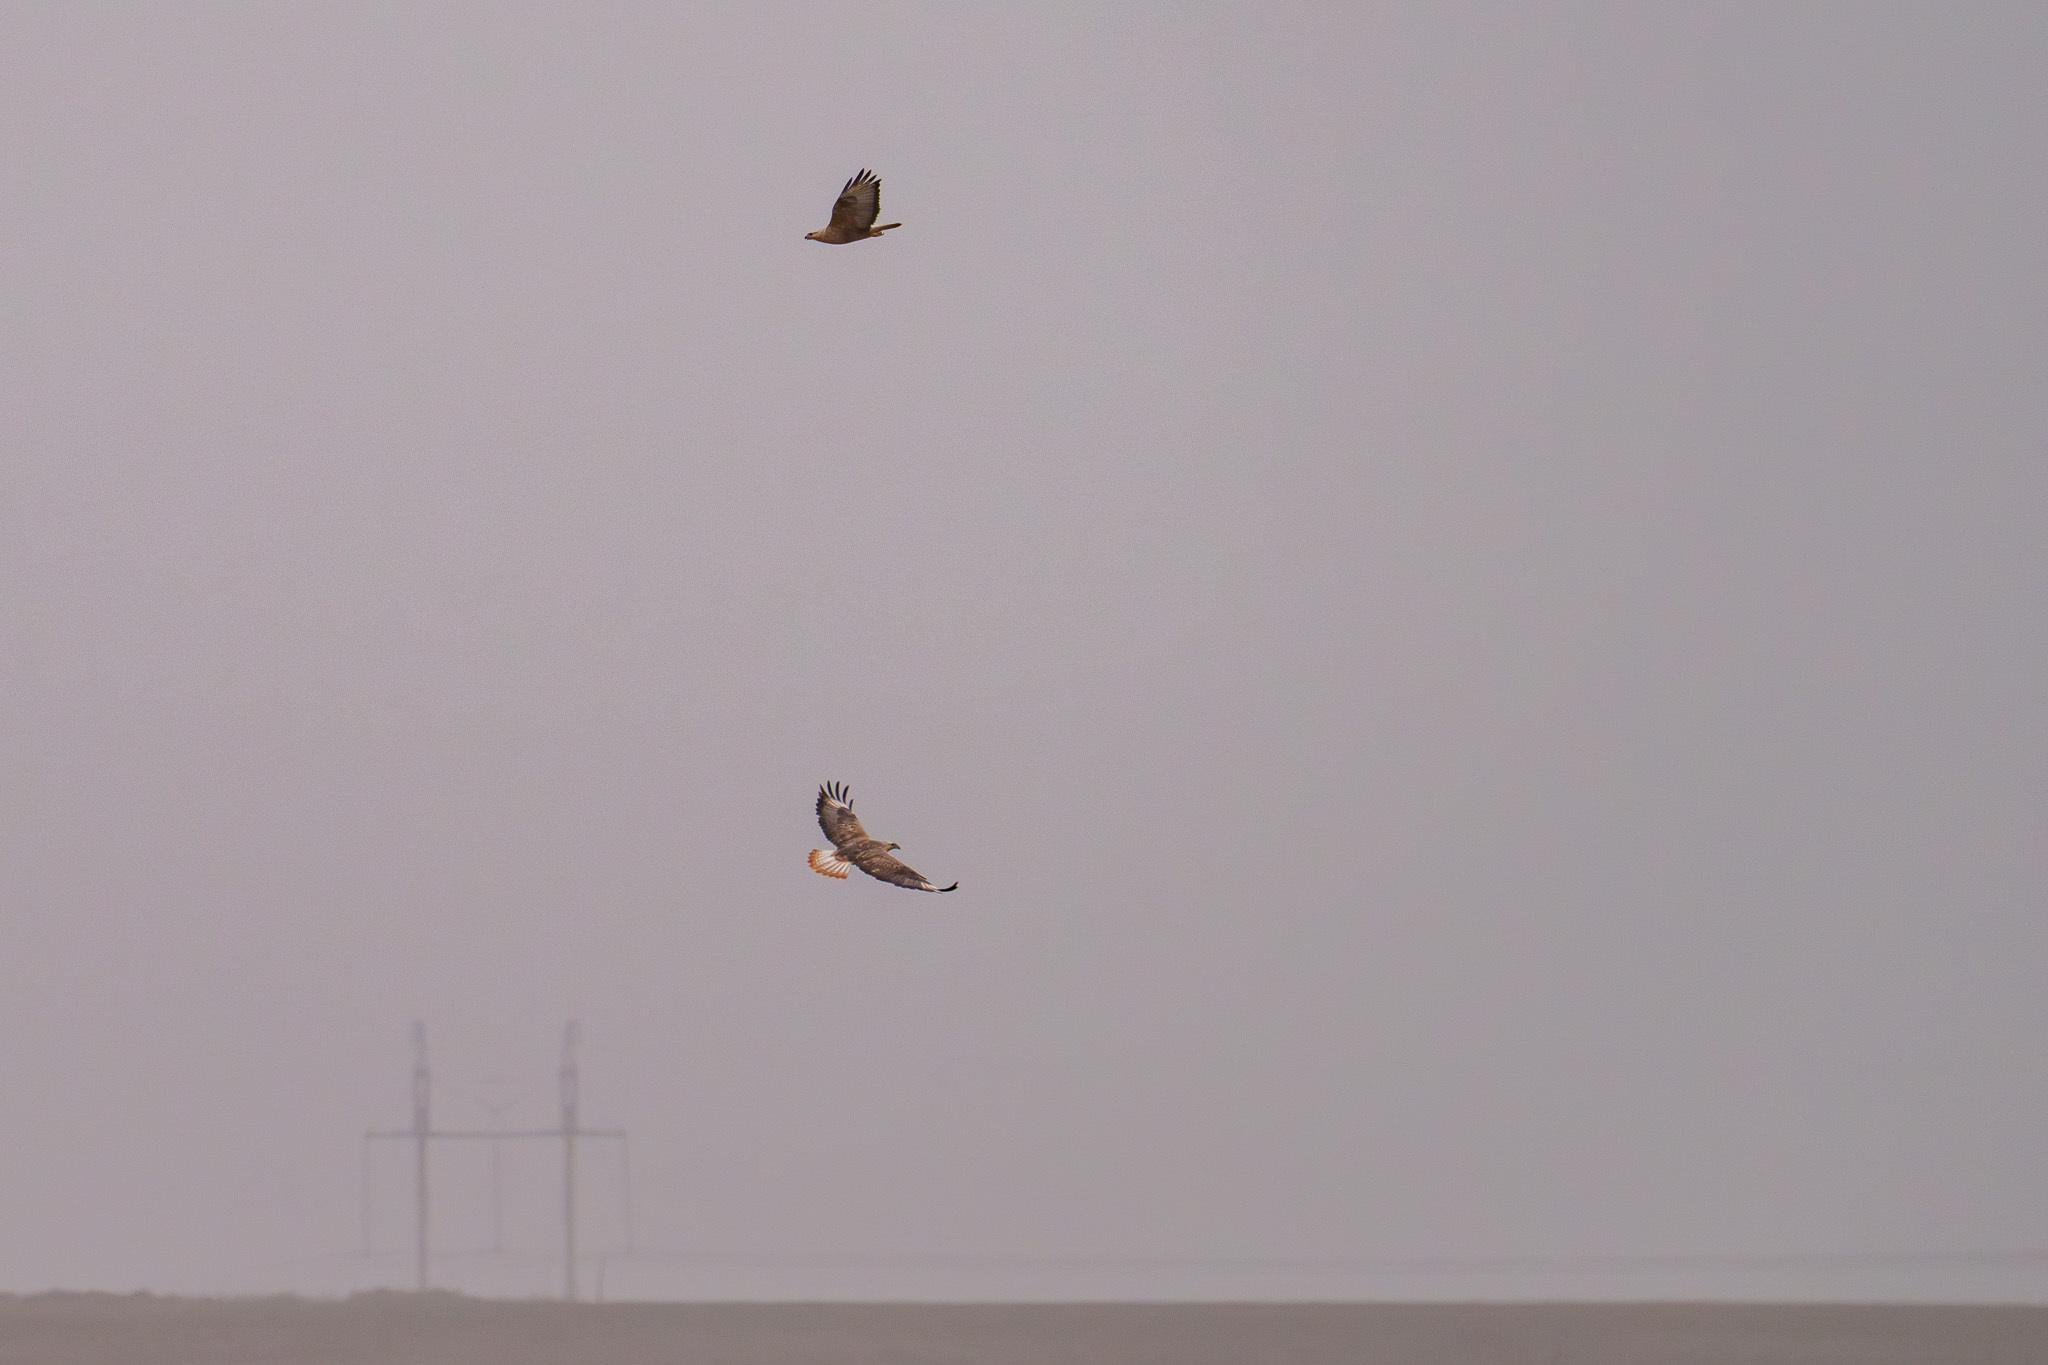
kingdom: Animalia
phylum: Chordata
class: Aves
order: Accipitriformes
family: Accipitridae
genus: Buteo
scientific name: Buteo rufinus
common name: Long-legged buzzard
